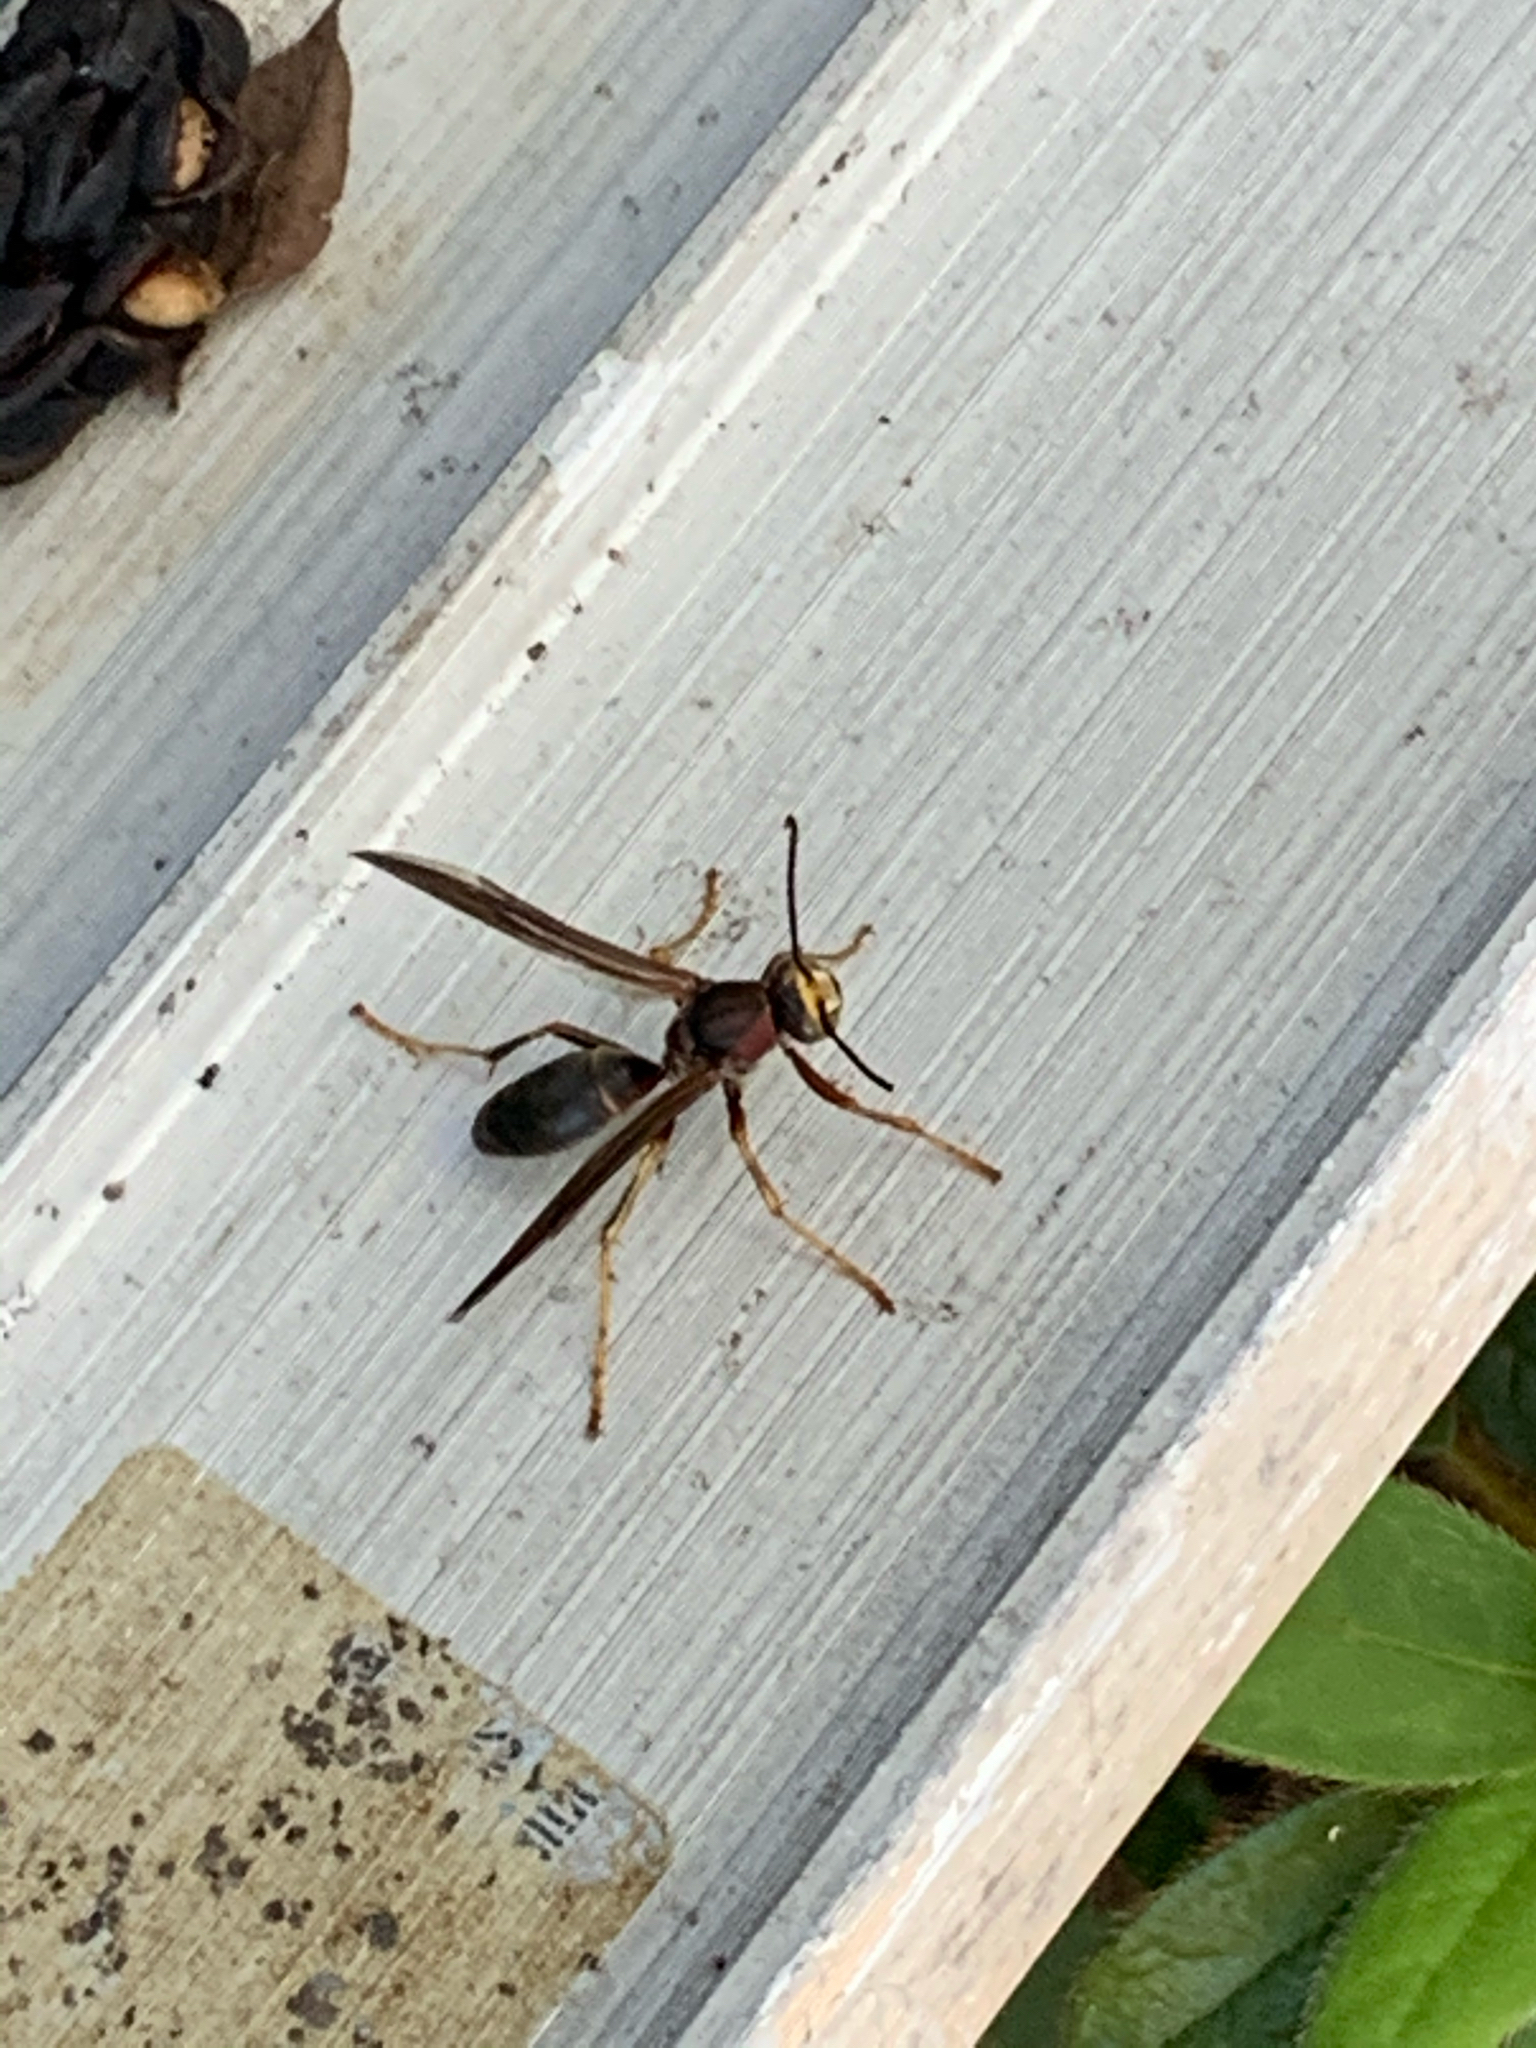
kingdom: Animalia
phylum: Arthropoda
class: Insecta
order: Hymenoptera
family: Vespidae
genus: Fuscopolistes
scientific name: Fuscopolistes
